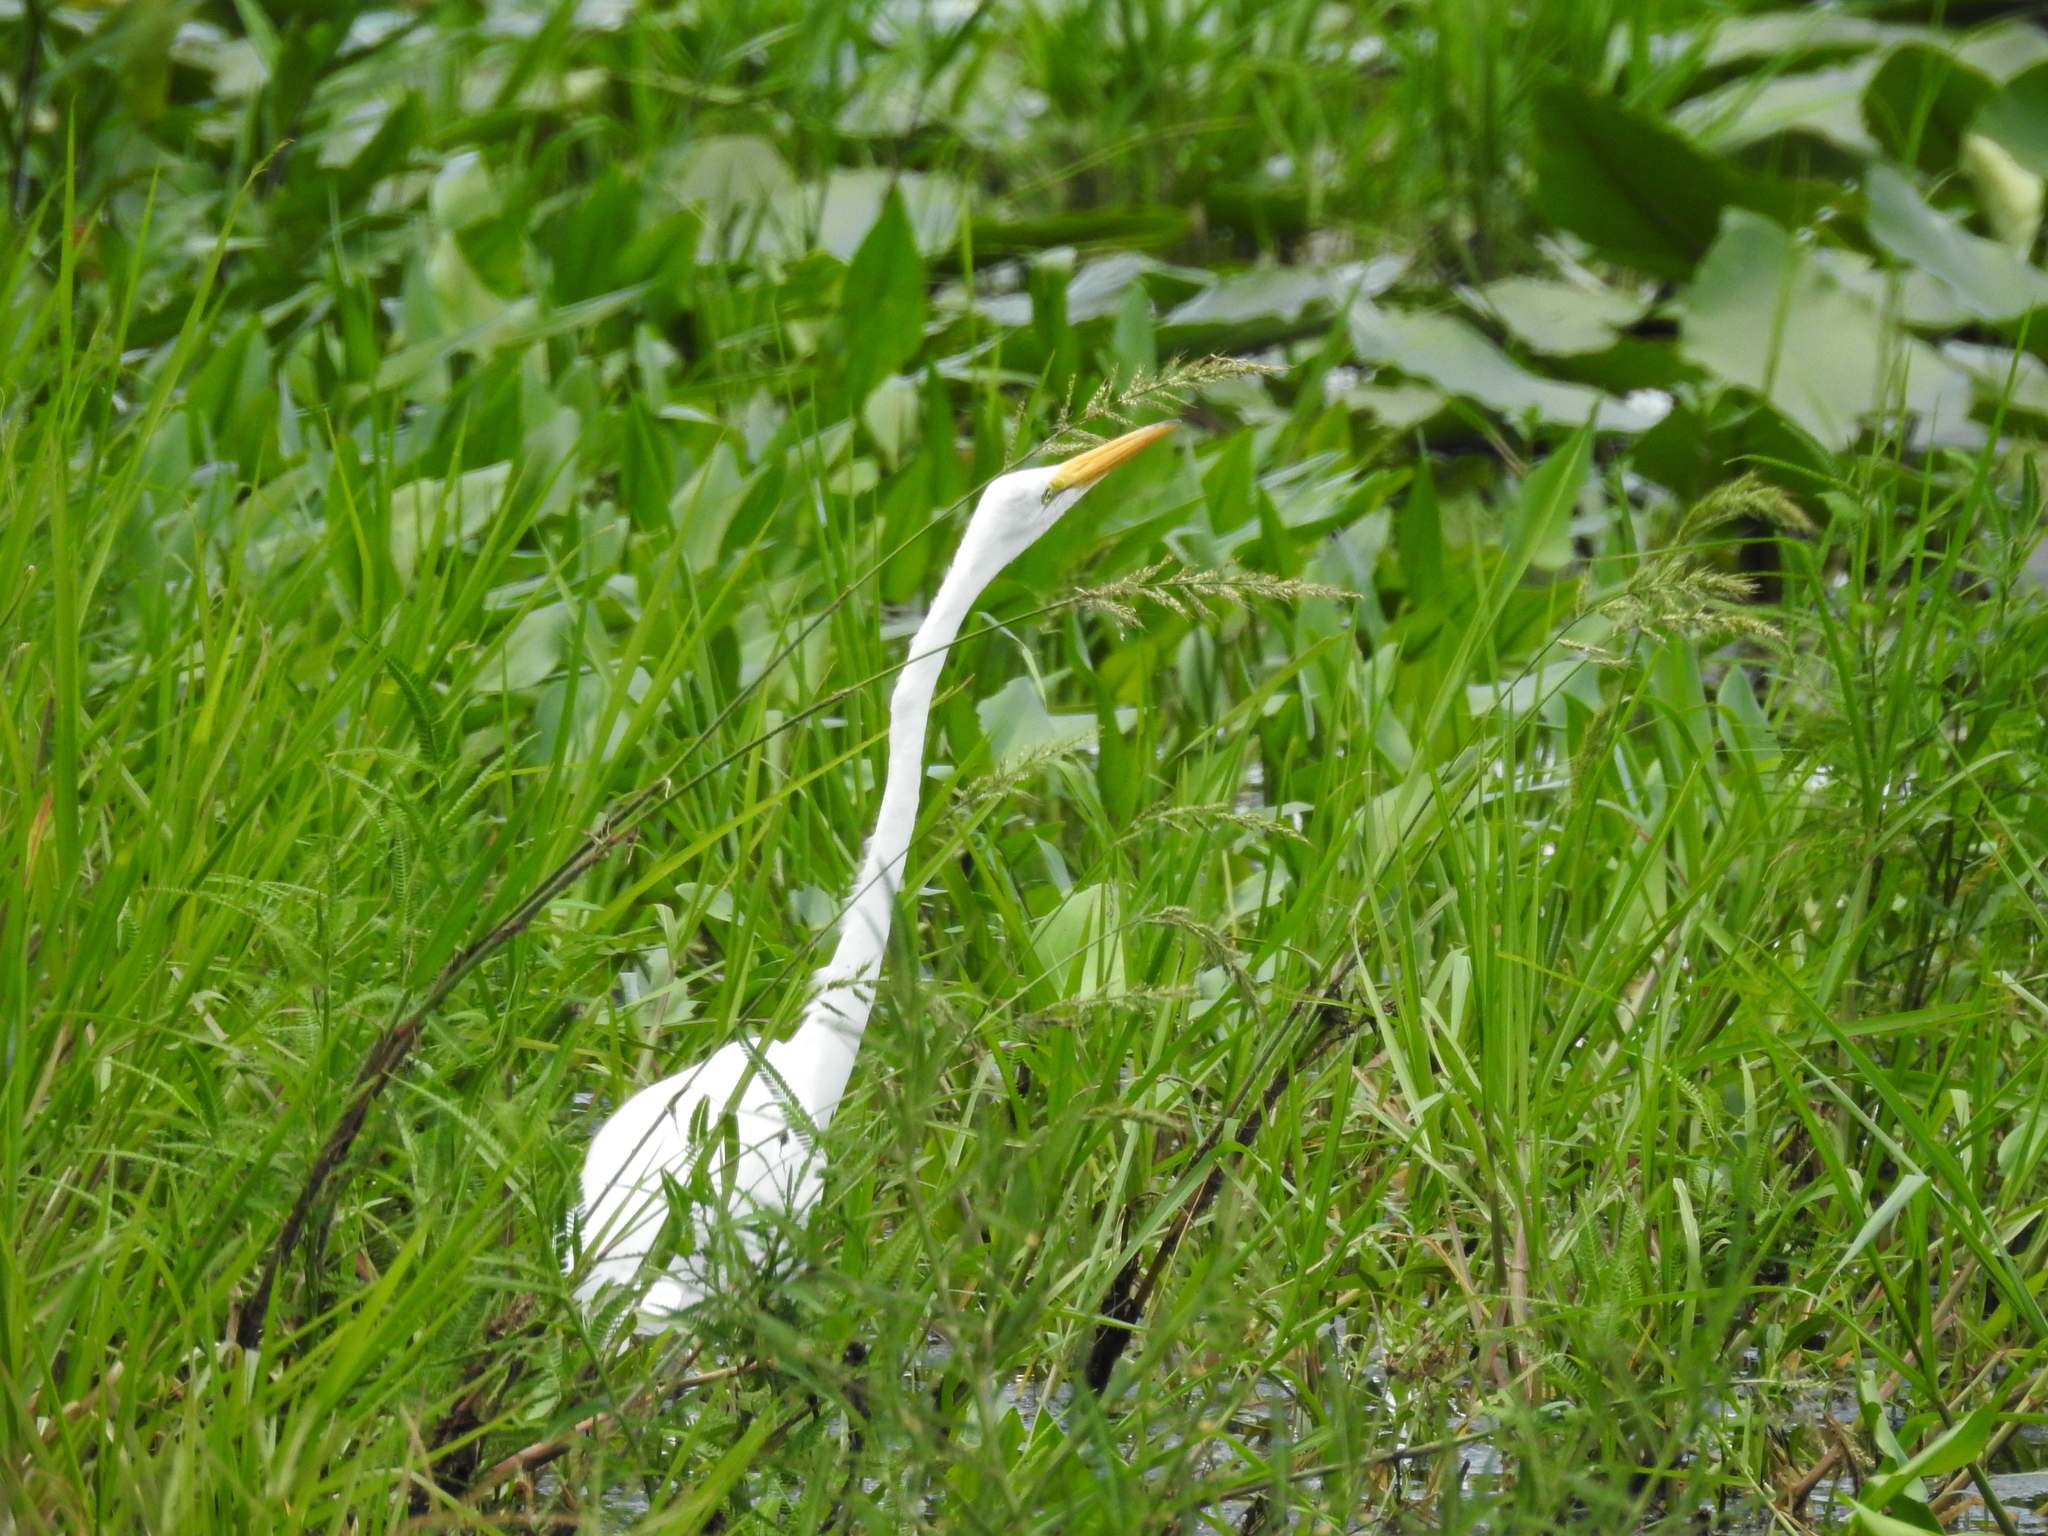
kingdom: Animalia
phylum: Chordata
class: Aves
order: Pelecaniformes
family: Ardeidae
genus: Ardea
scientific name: Ardea alba
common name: Great egret
